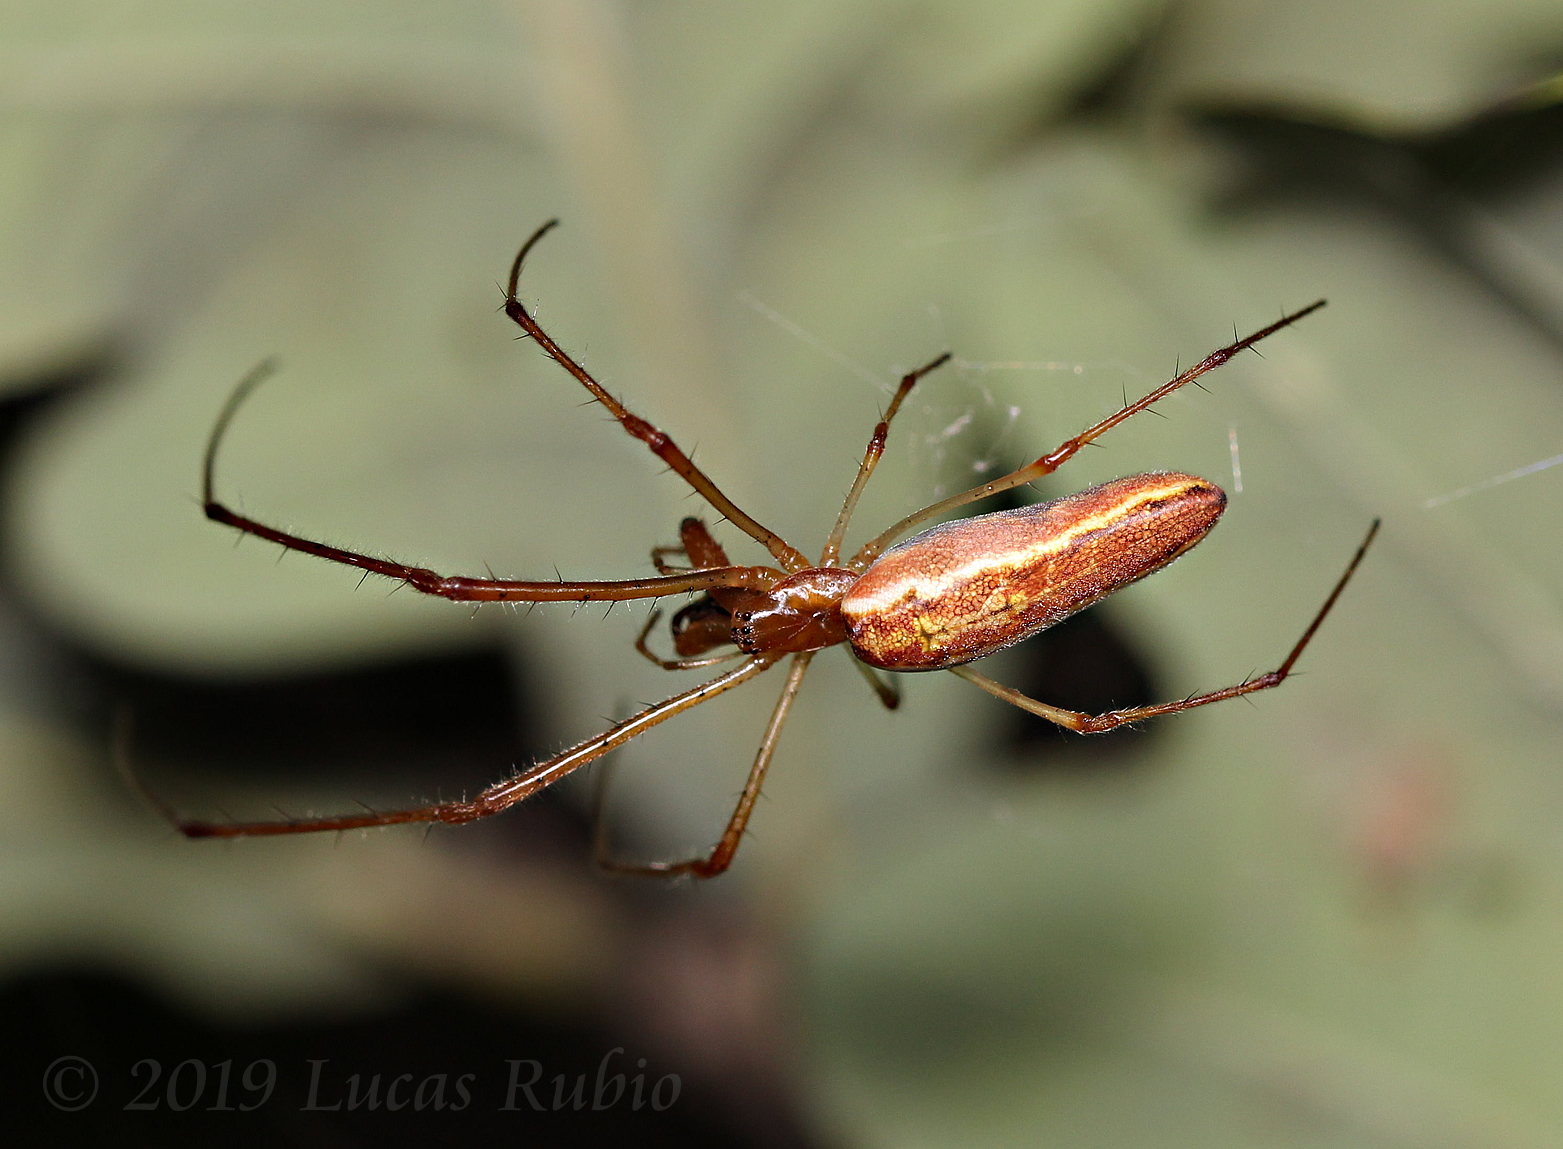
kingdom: Animalia
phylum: Arthropoda
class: Arachnida
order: Araneae
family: Tetragnathidae
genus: Tetragnatha
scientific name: Tetragnatha
